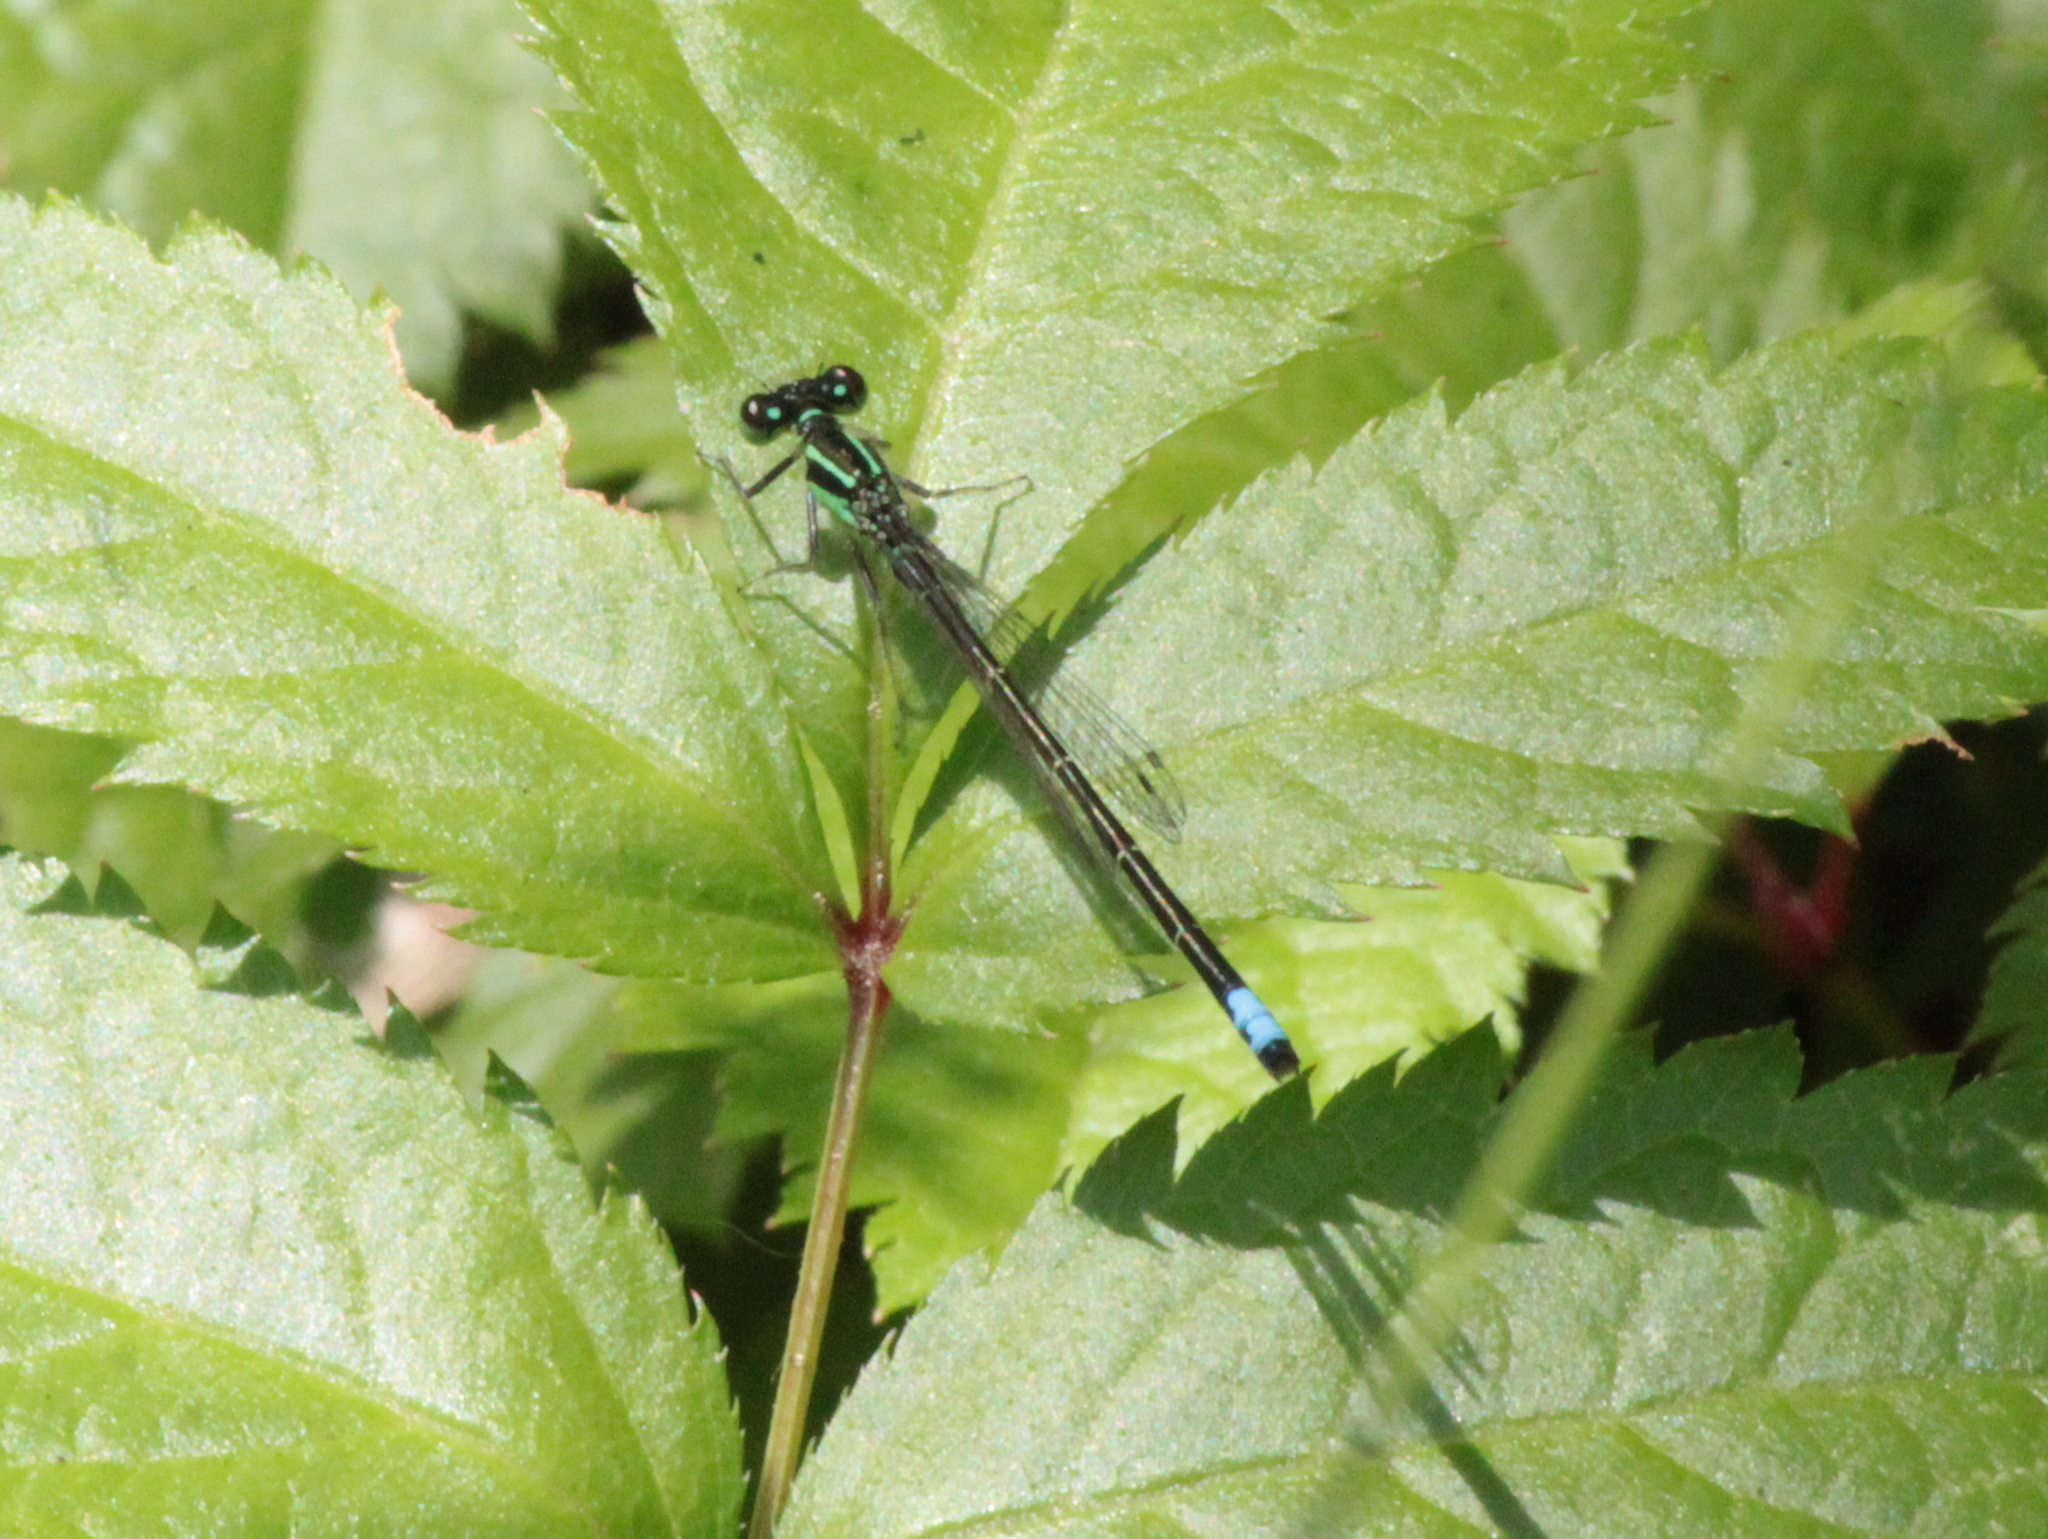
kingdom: Animalia
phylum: Arthropoda
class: Insecta
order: Odonata
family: Coenagrionidae
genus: Ischnura
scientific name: Ischnura verticalis
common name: Eastern forktail
